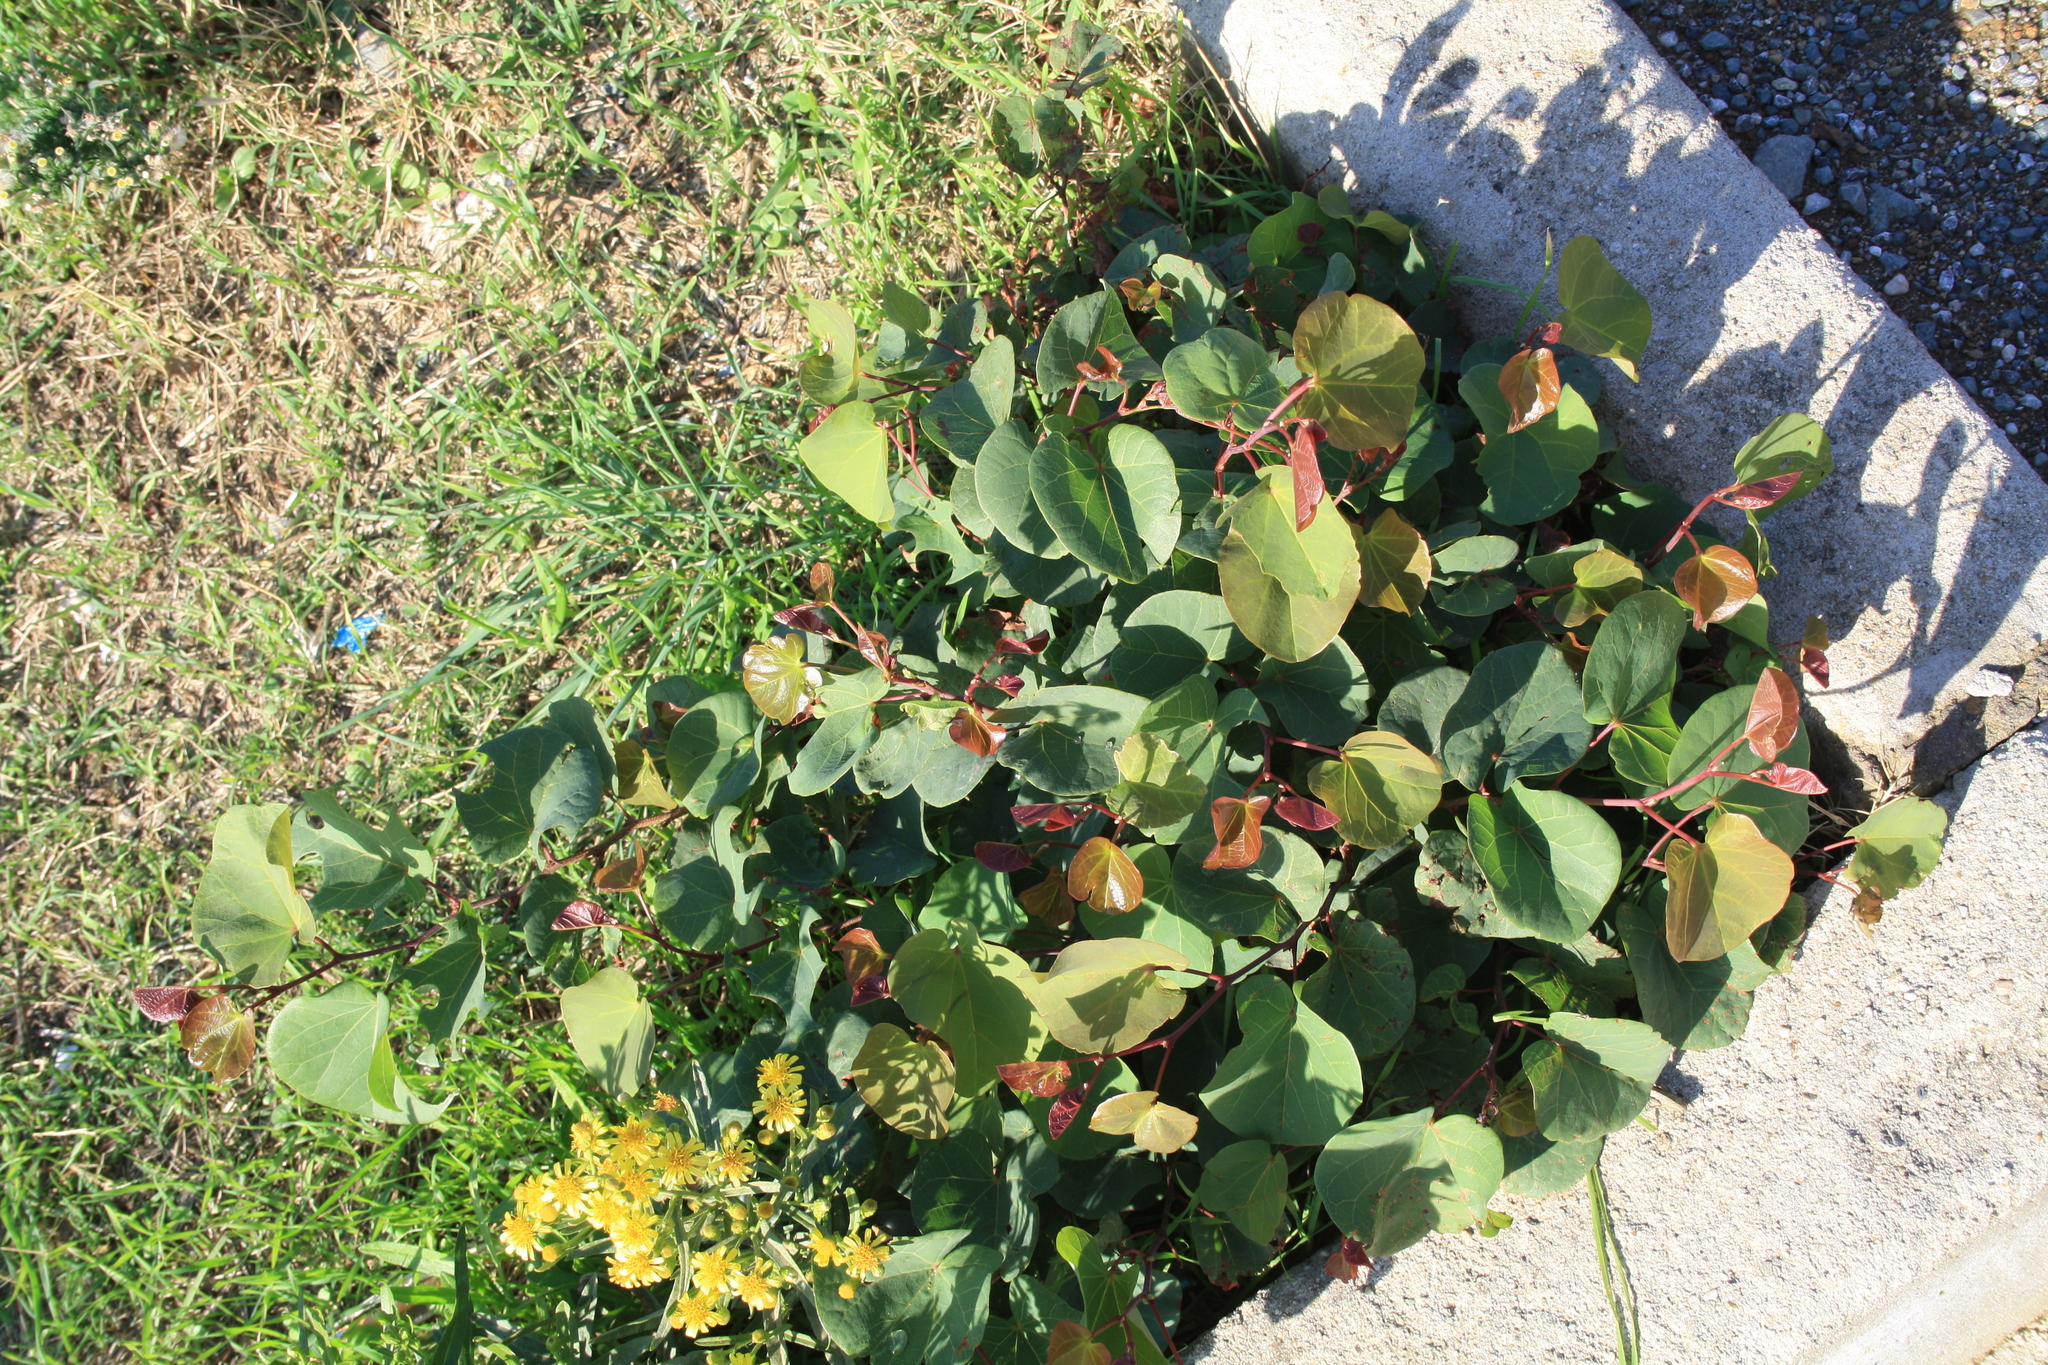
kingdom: Plantae
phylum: Tracheophyta
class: Magnoliopsida
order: Fabales
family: Fabaceae
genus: Cercis
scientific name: Cercis siliquastrum
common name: Judas tree
